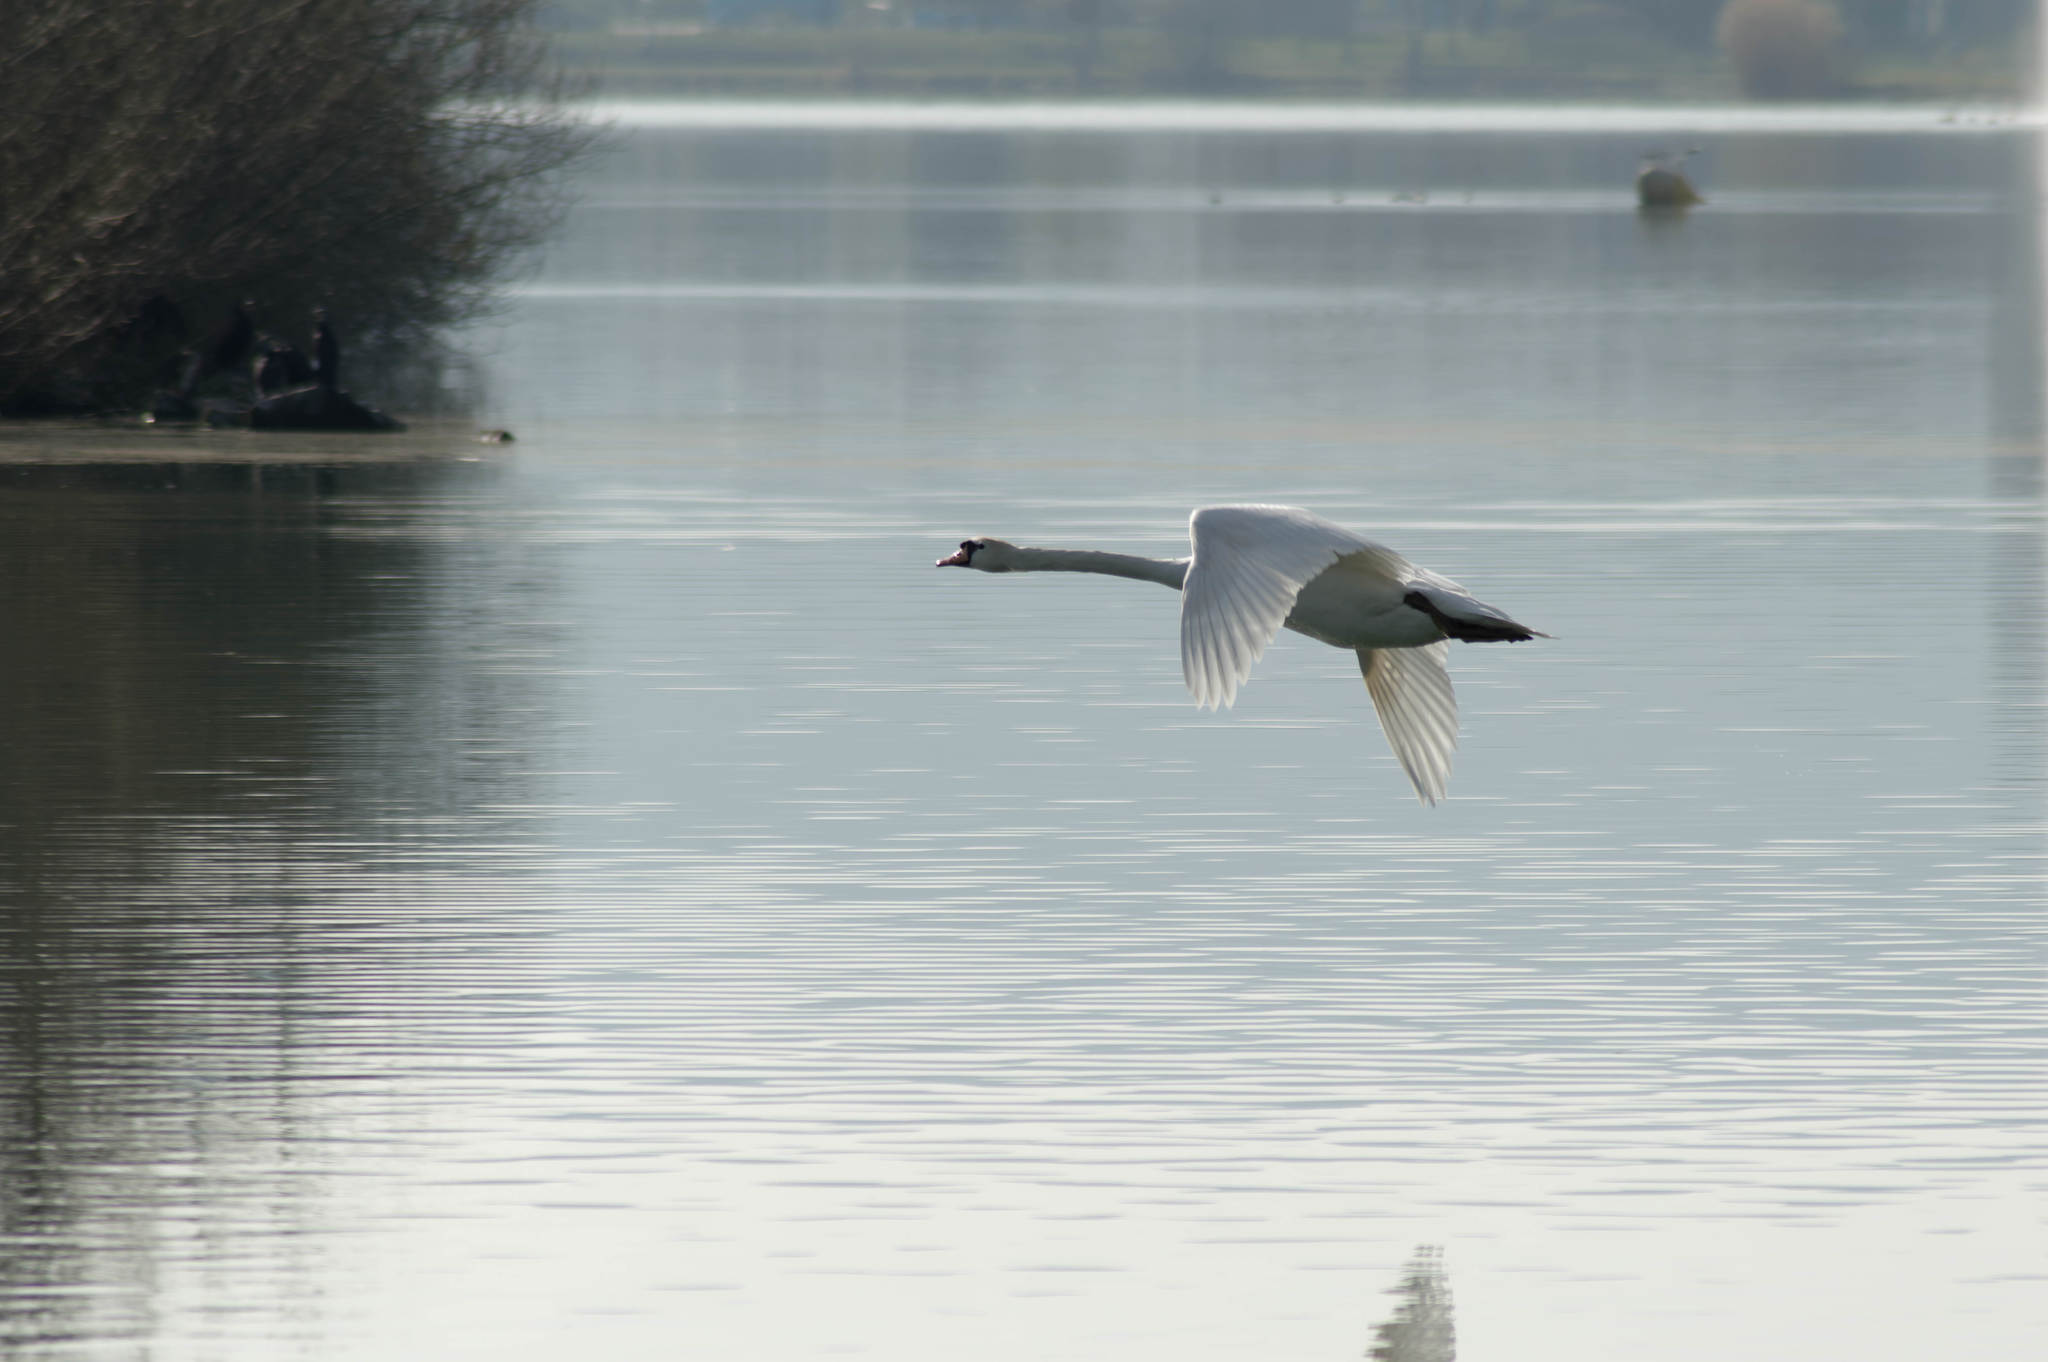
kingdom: Animalia
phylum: Chordata
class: Aves
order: Anseriformes
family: Anatidae
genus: Cygnus
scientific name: Cygnus olor
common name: Mute swan
